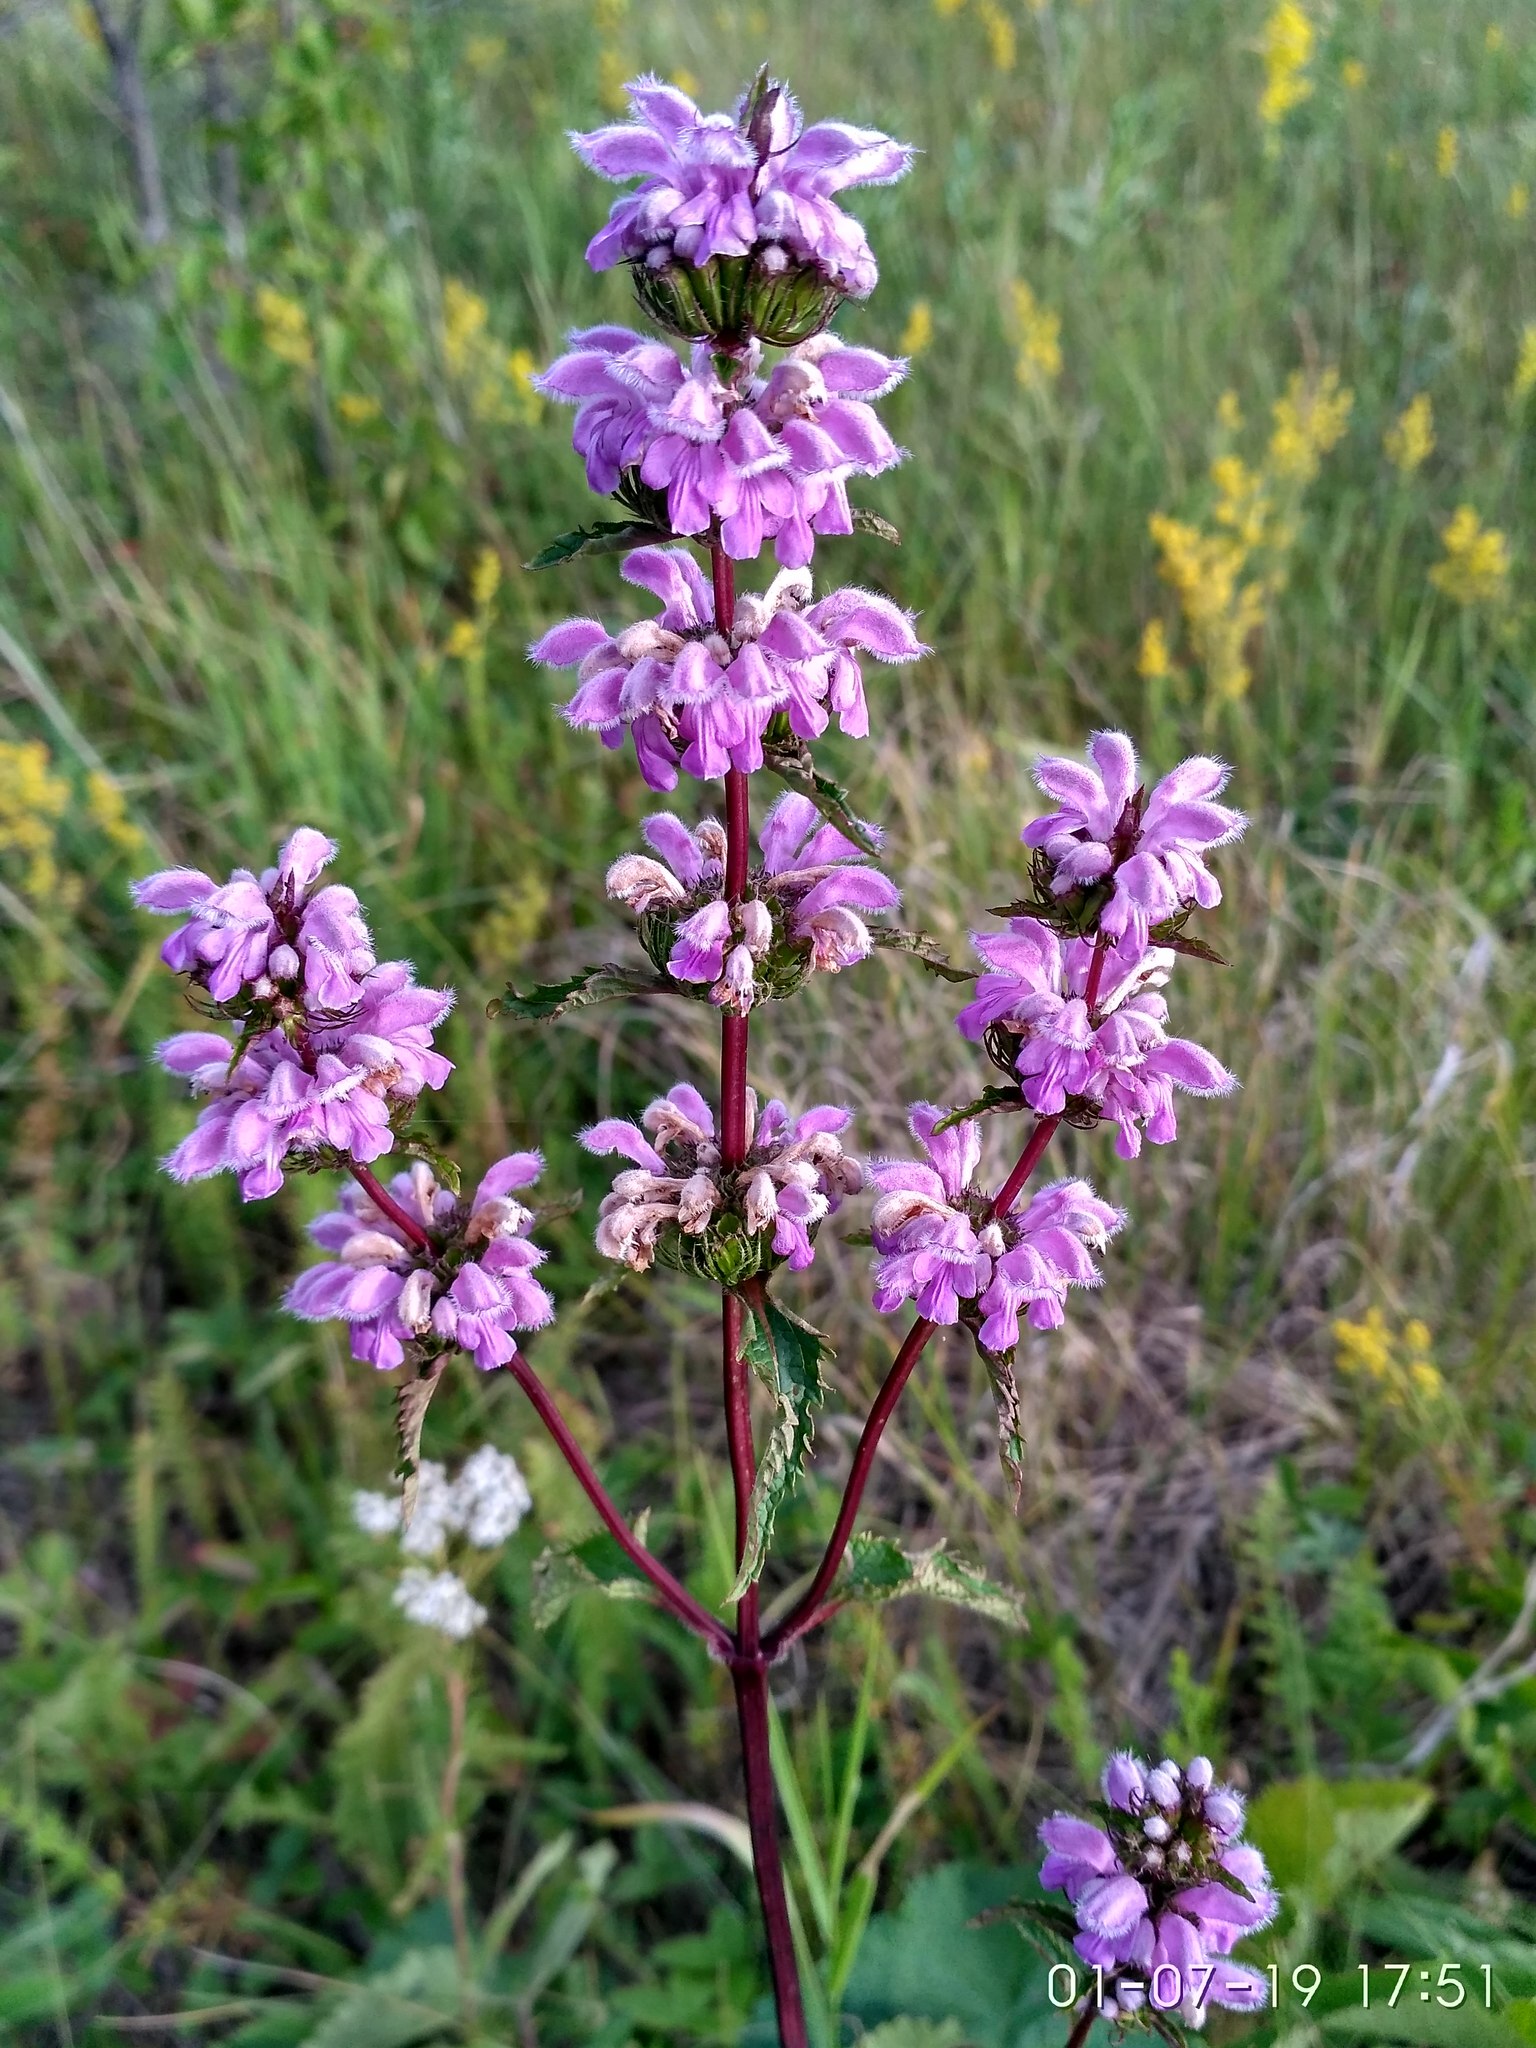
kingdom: Plantae
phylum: Tracheophyta
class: Magnoliopsida
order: Lamiales
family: Lamiaceae
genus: Phlomoides
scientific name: Phlomoides tuberosa
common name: Tuberous jerusalem sage
